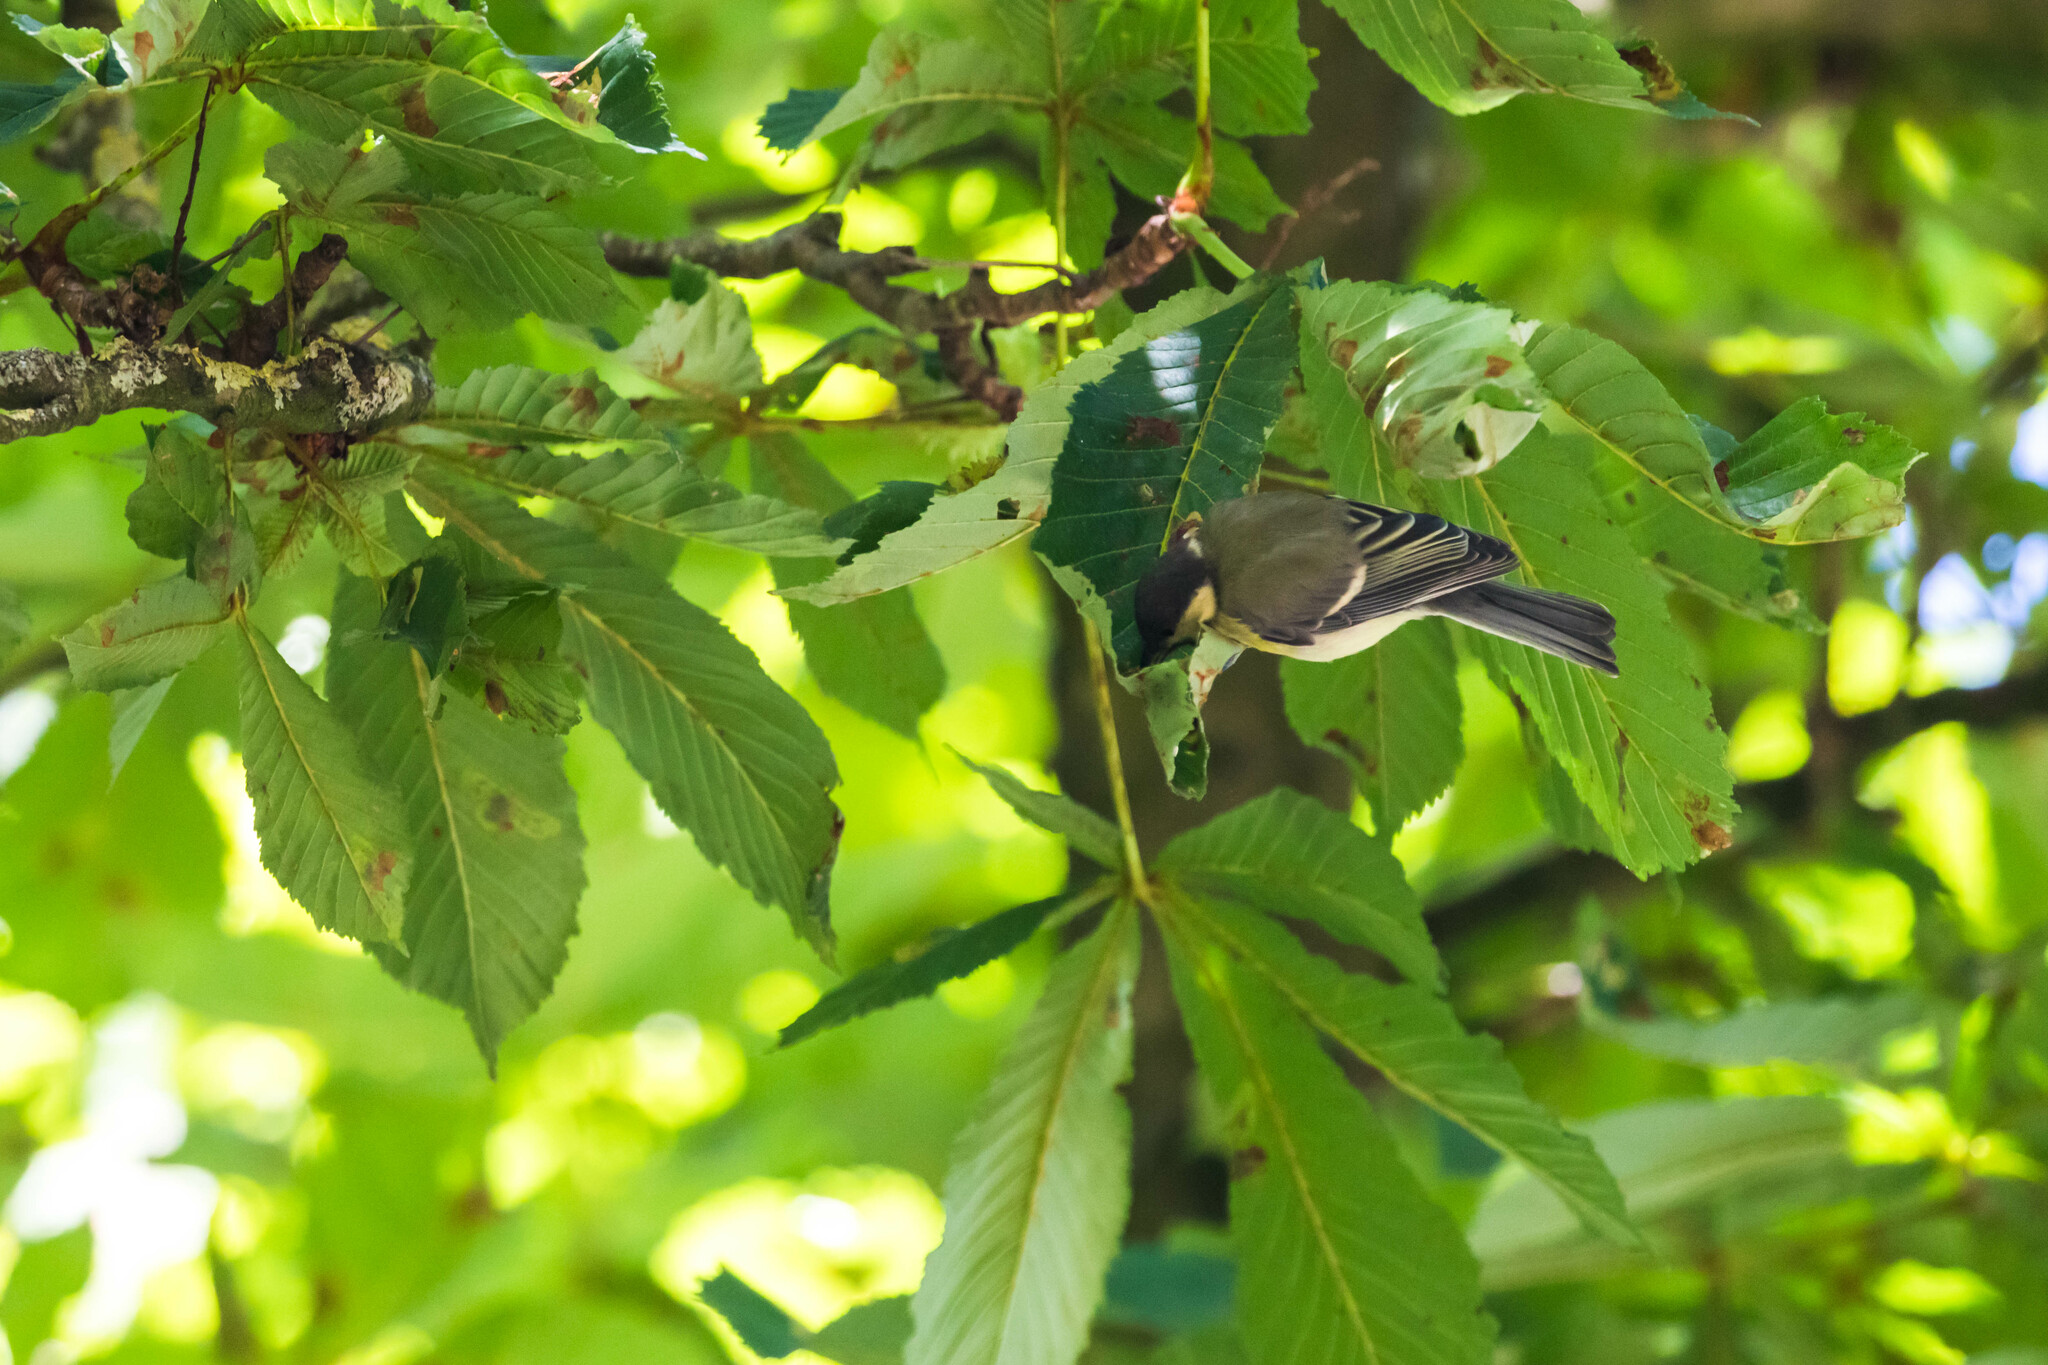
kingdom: Animalia
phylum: Chordata
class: Aves
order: Passeriformes
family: Paridae
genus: Parus
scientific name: Parus major
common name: Great tit
